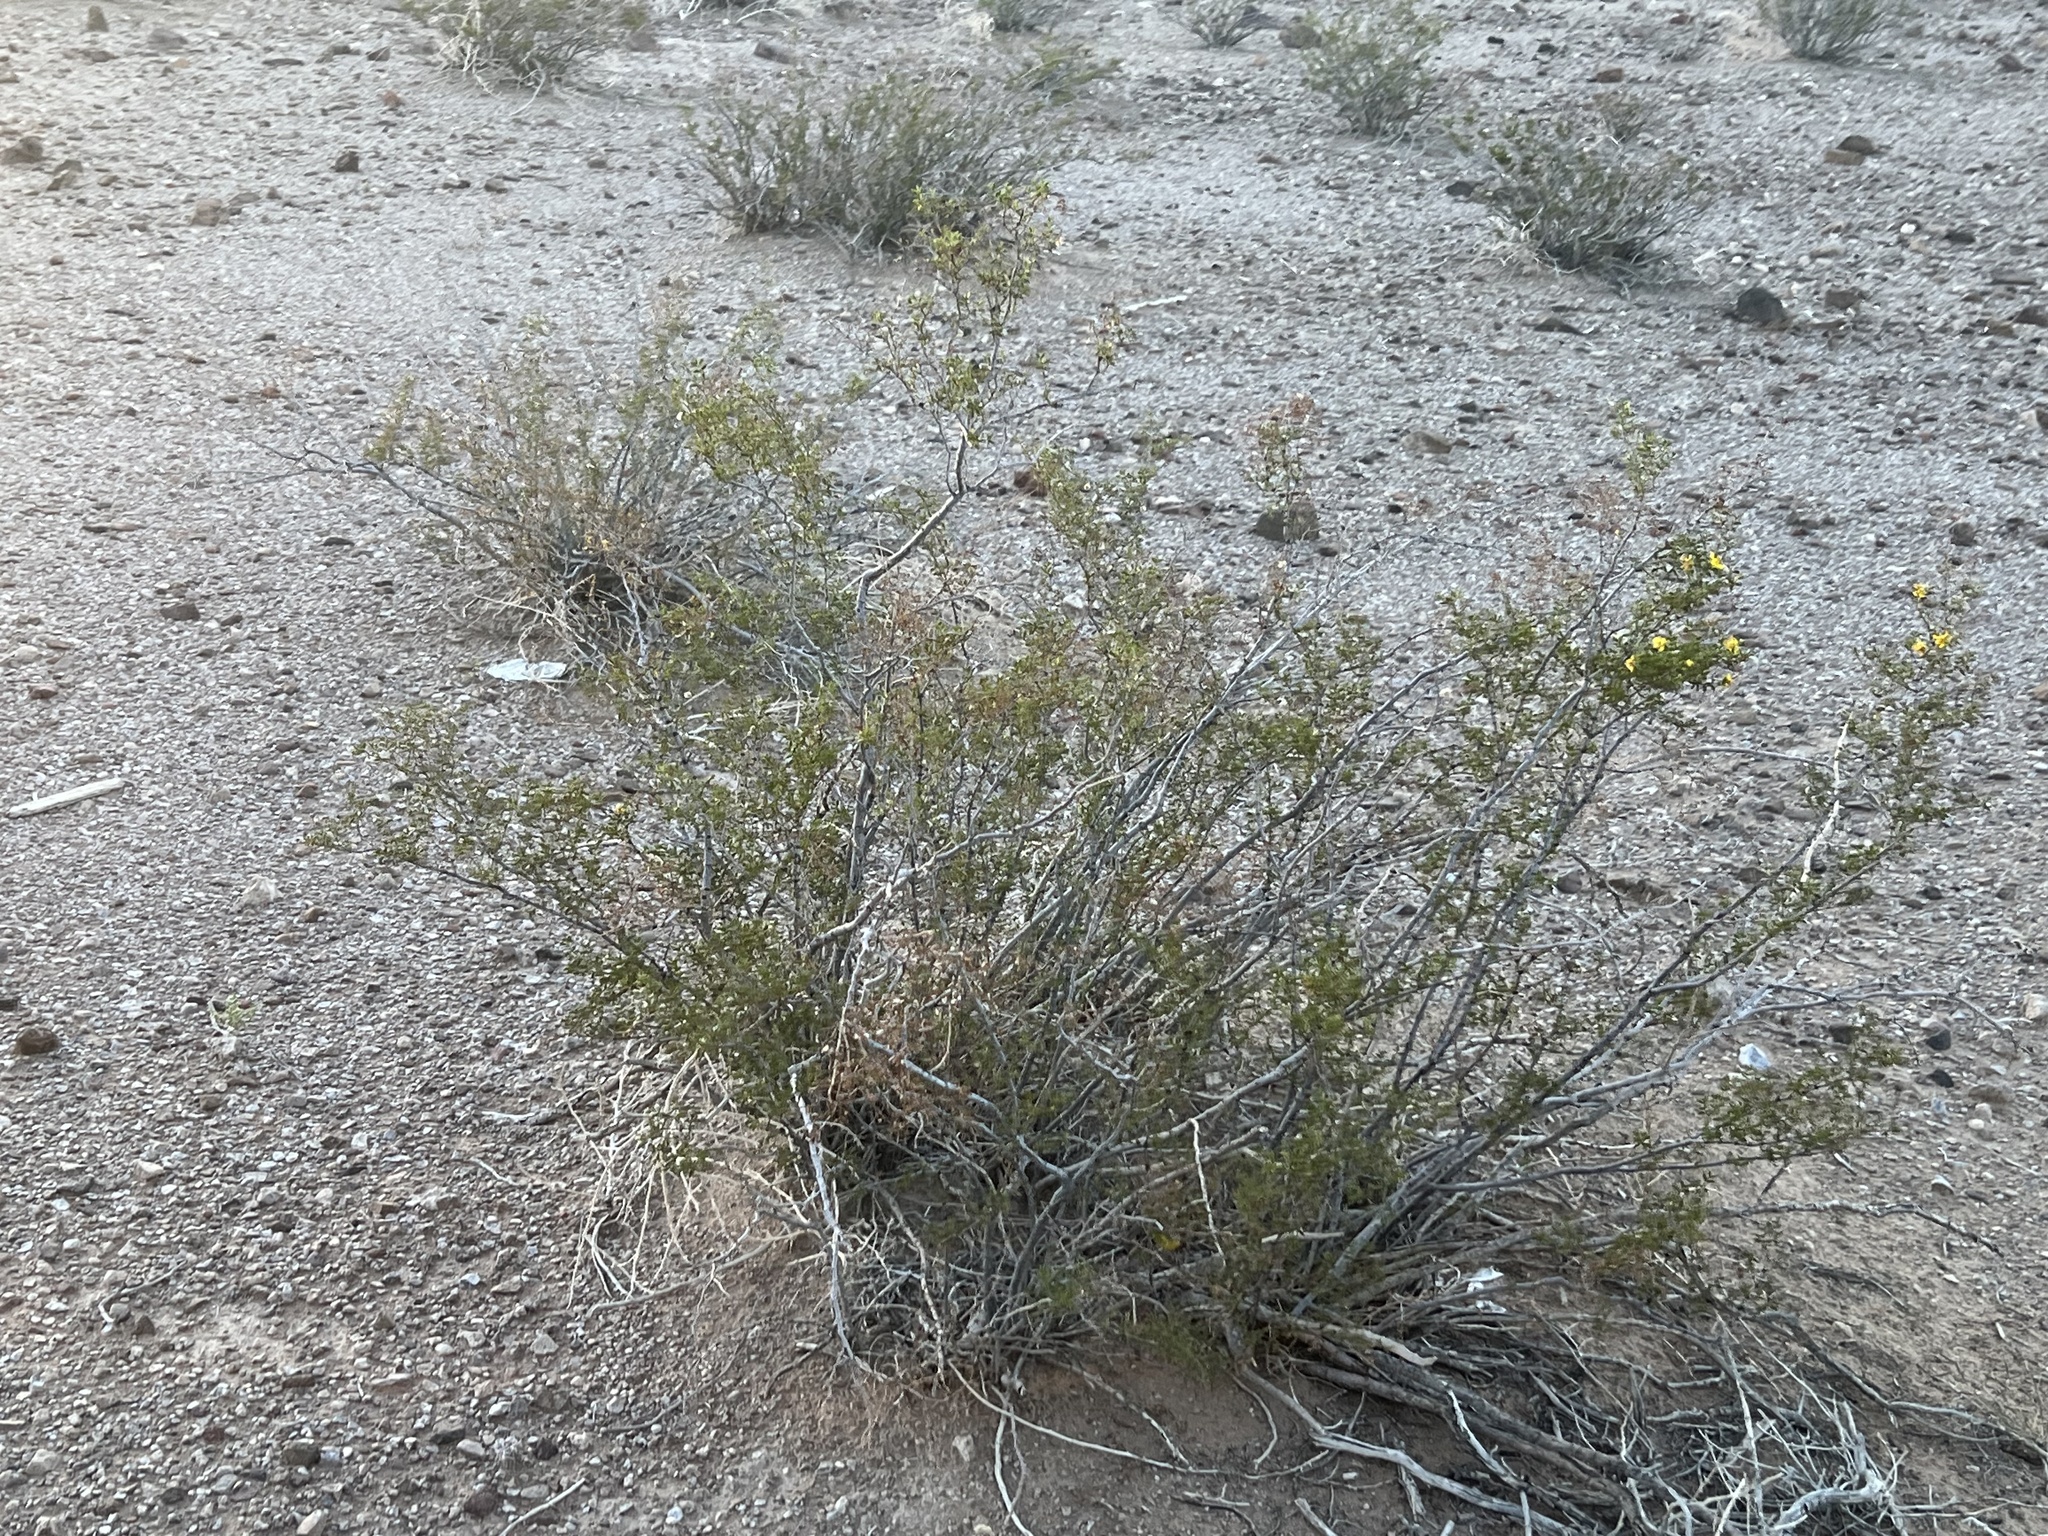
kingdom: Plantae
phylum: Tracheophyta
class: Magnoliopsida
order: Zygophyllales
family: Zygophyllaceae
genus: Larrea
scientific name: Larrea tridentata
